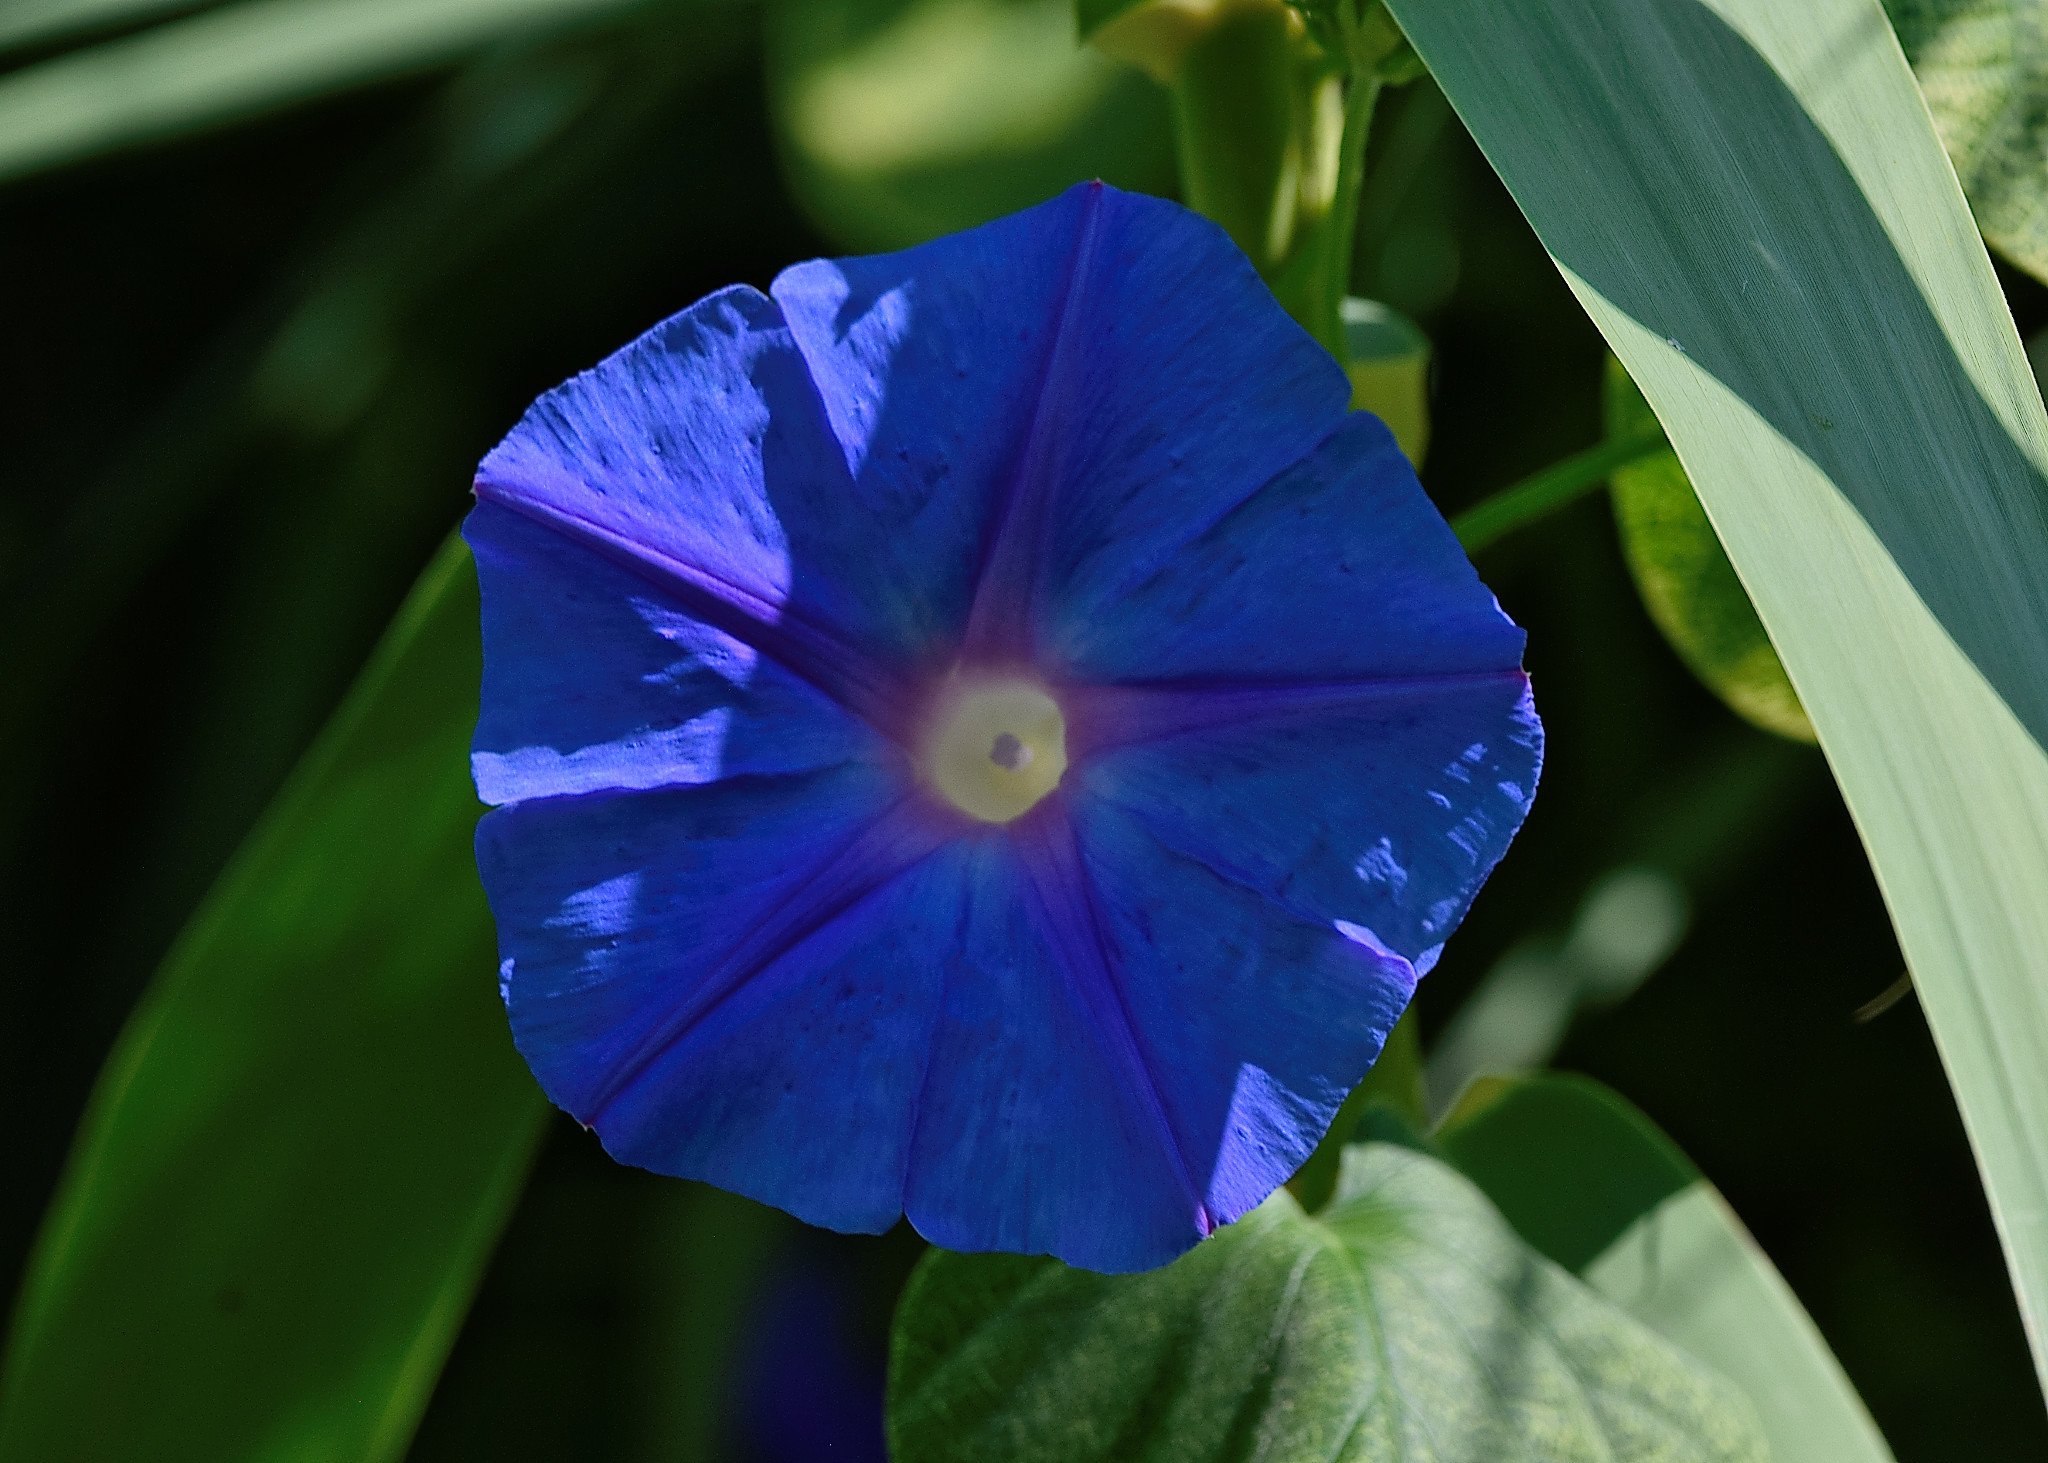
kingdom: Plantae
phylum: Tracheophyta
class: Magnoliopsida
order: Solanales
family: Convolvulaceae
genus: Ipomoea
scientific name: Ipomoea indica
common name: Blue dawnflower
